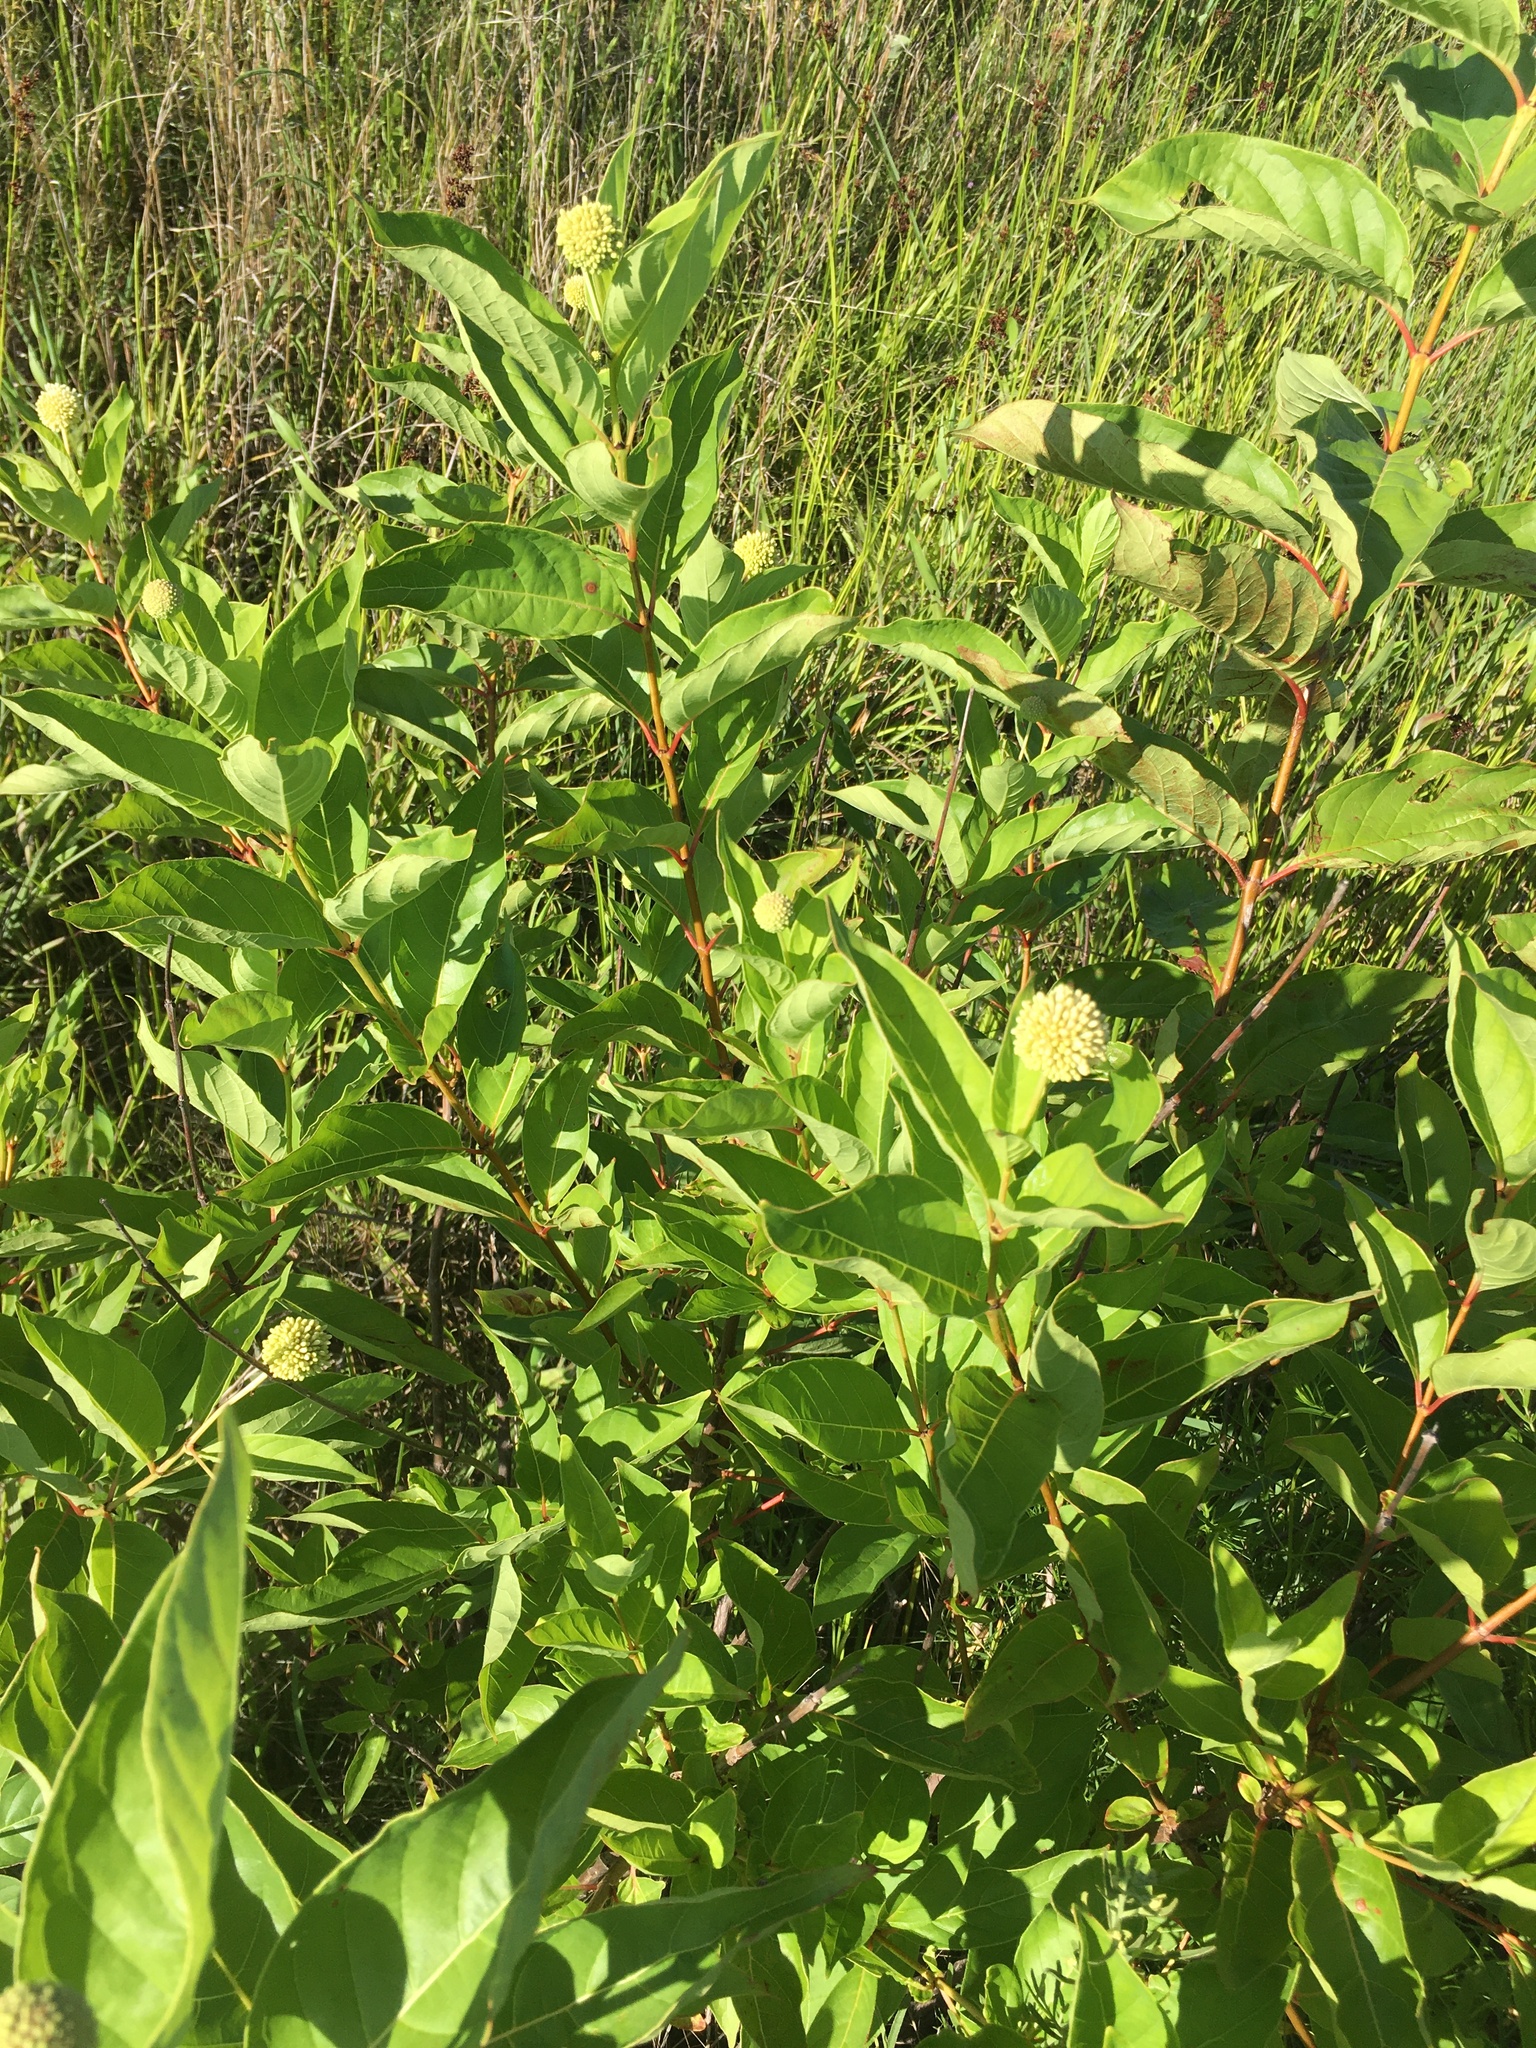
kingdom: Plantae
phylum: Tracheophyta
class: Magnoliopsida
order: Gentianales
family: Rubiaceae
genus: Cephalanthus
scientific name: Cephalanthus occidentalis
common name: Button-willow
